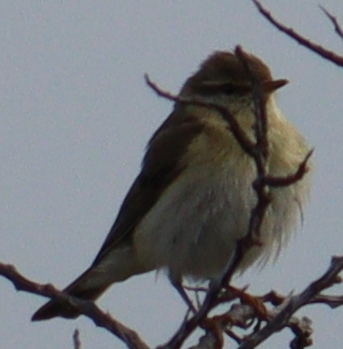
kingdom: Animalia
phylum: Chordata
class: Aves
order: Passeriformes
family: Phylloscopidae
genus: Phylloscopus
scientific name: Phylloscopus collybita
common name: Common chiffchaff
